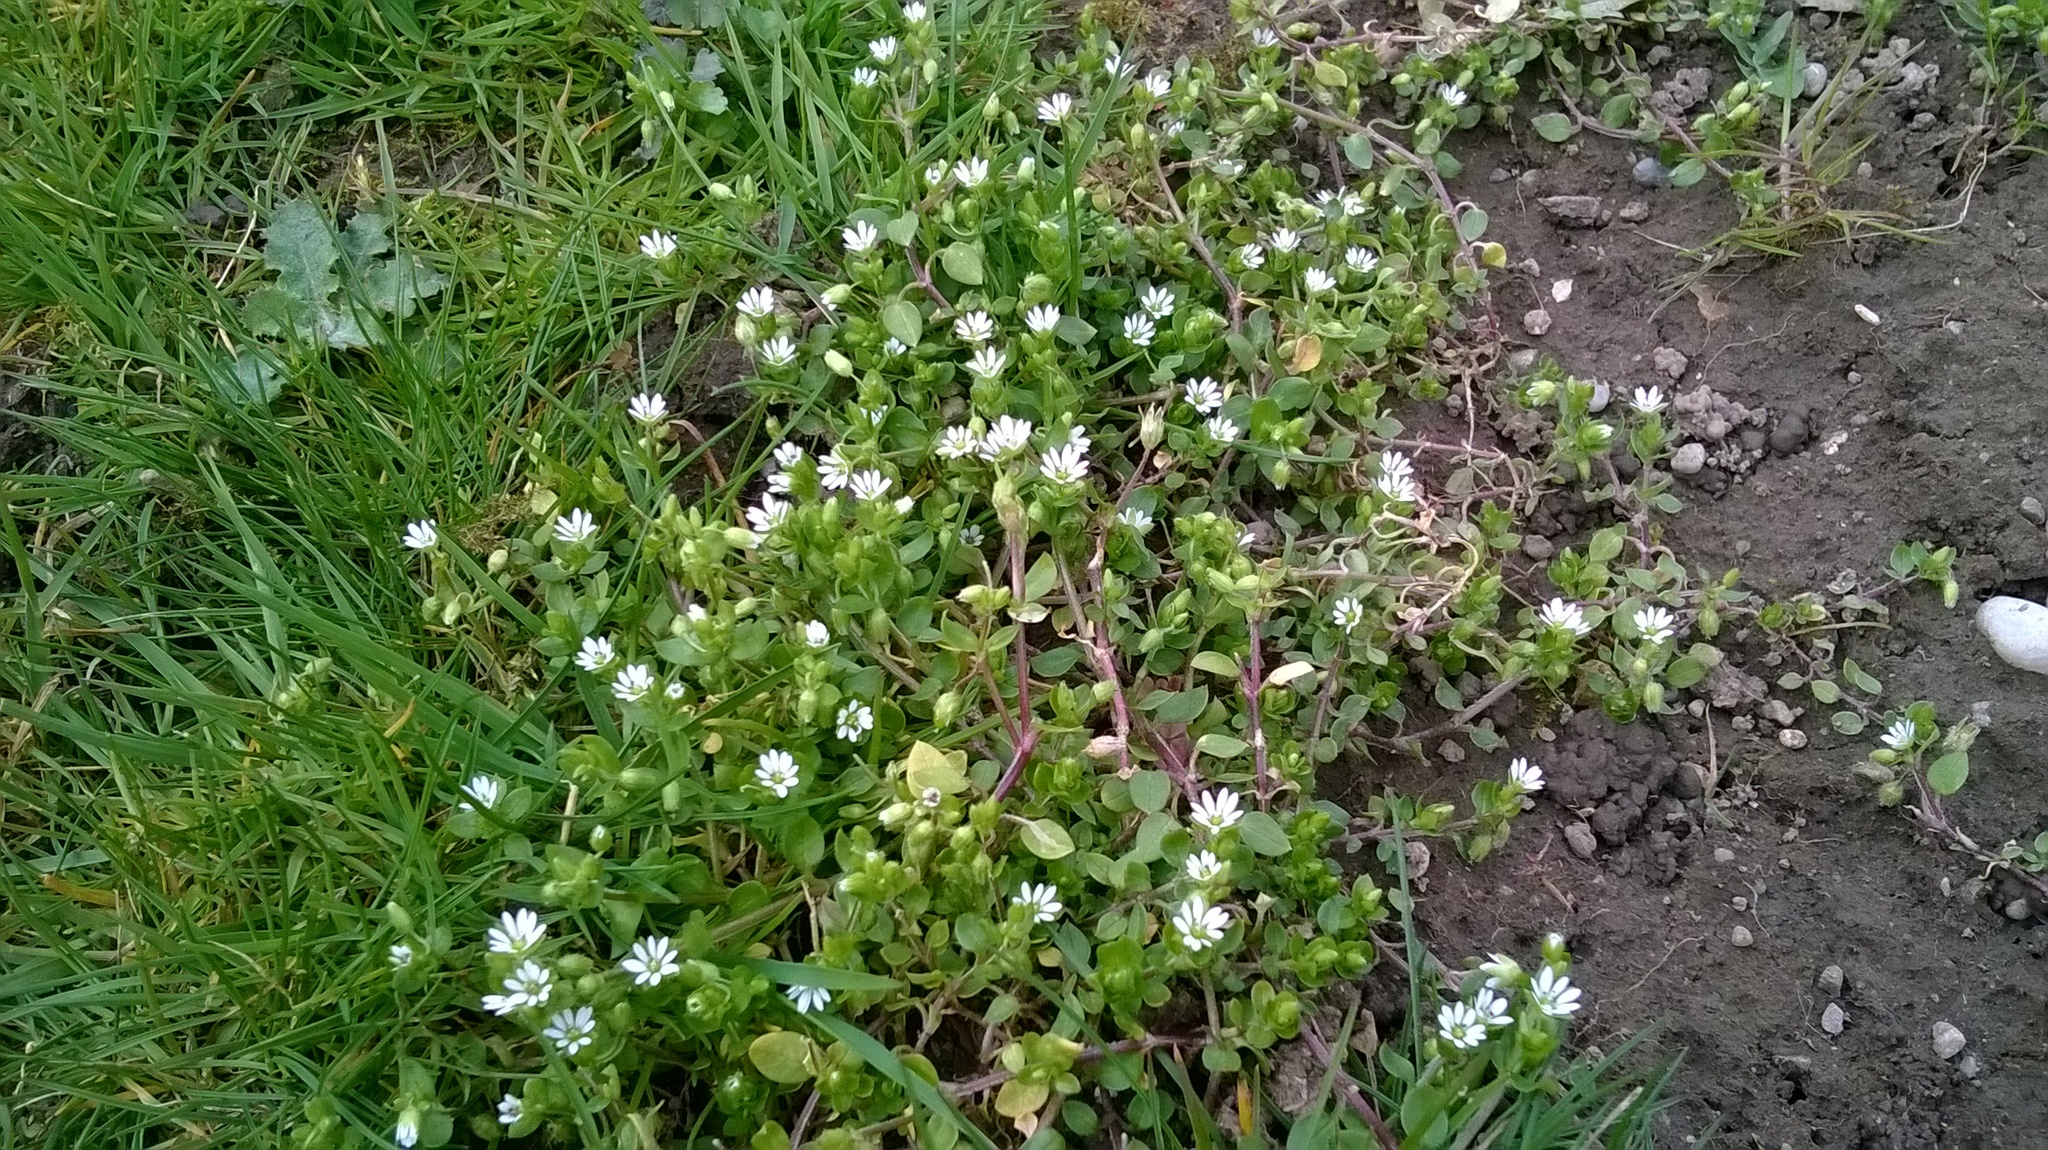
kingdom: Plantae
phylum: Tracheophyta
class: Magnoliopsida
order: Caryophyllales
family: Caryophyllaceae
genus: Stellaria
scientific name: Stellaria media
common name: Common chickweed
